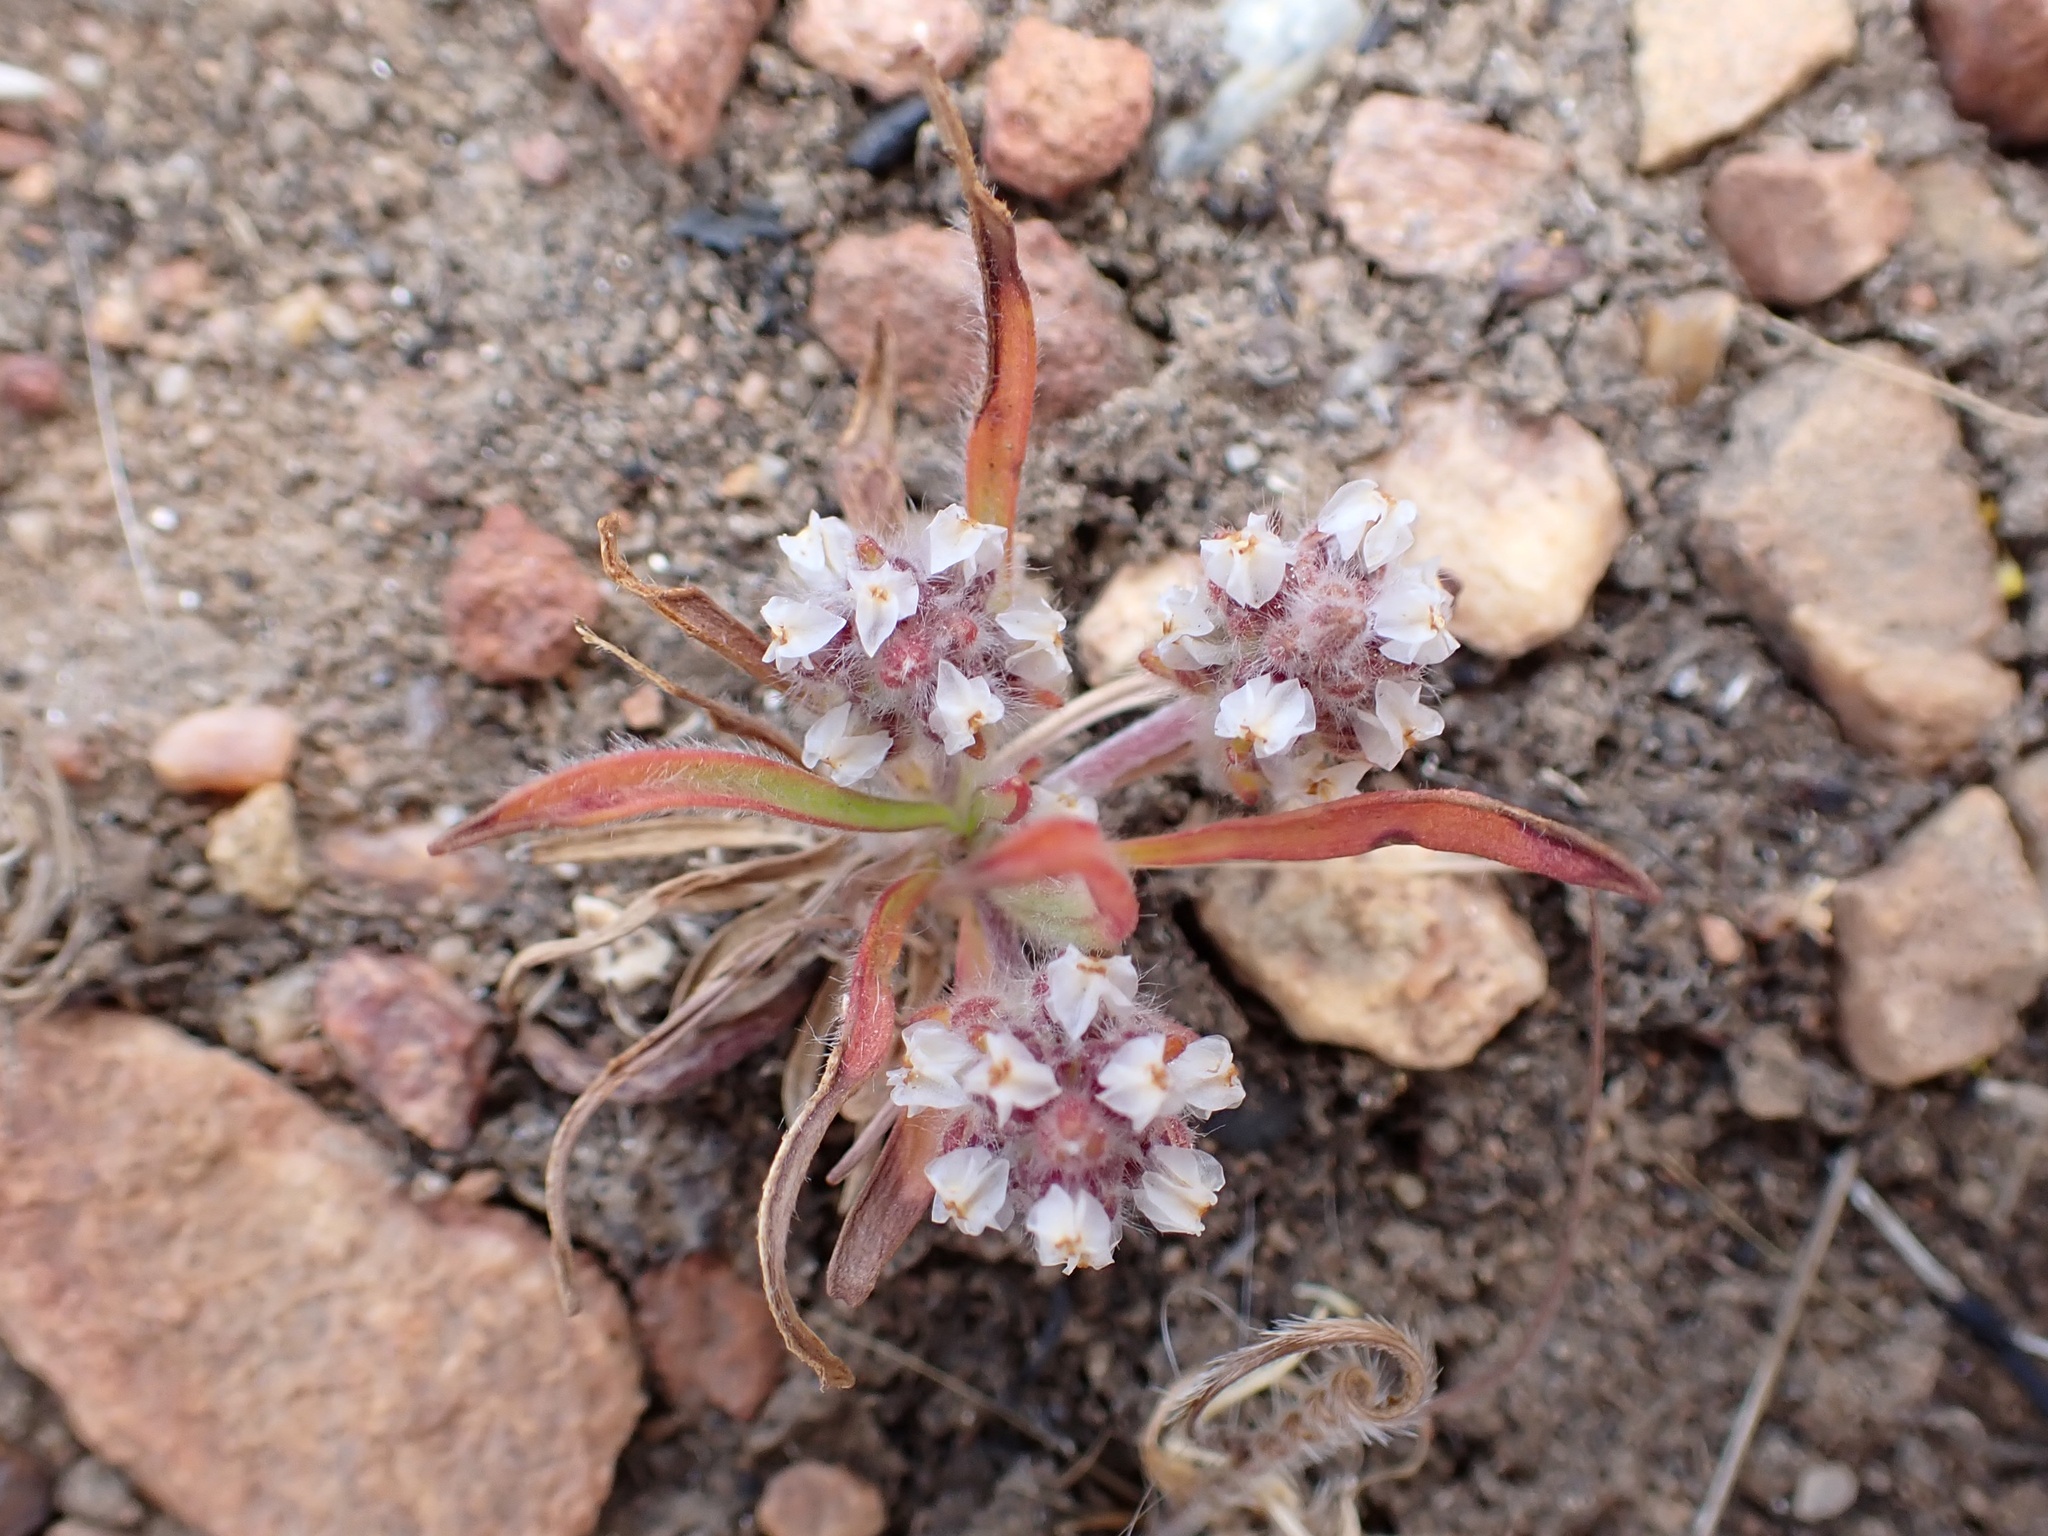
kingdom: Plantae
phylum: Tracheophyta
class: Magnoliopsida
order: Lamiales
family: Plantaginaceae
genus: Plantago
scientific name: Plantago patagonica
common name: Patagonia indian-wheat
